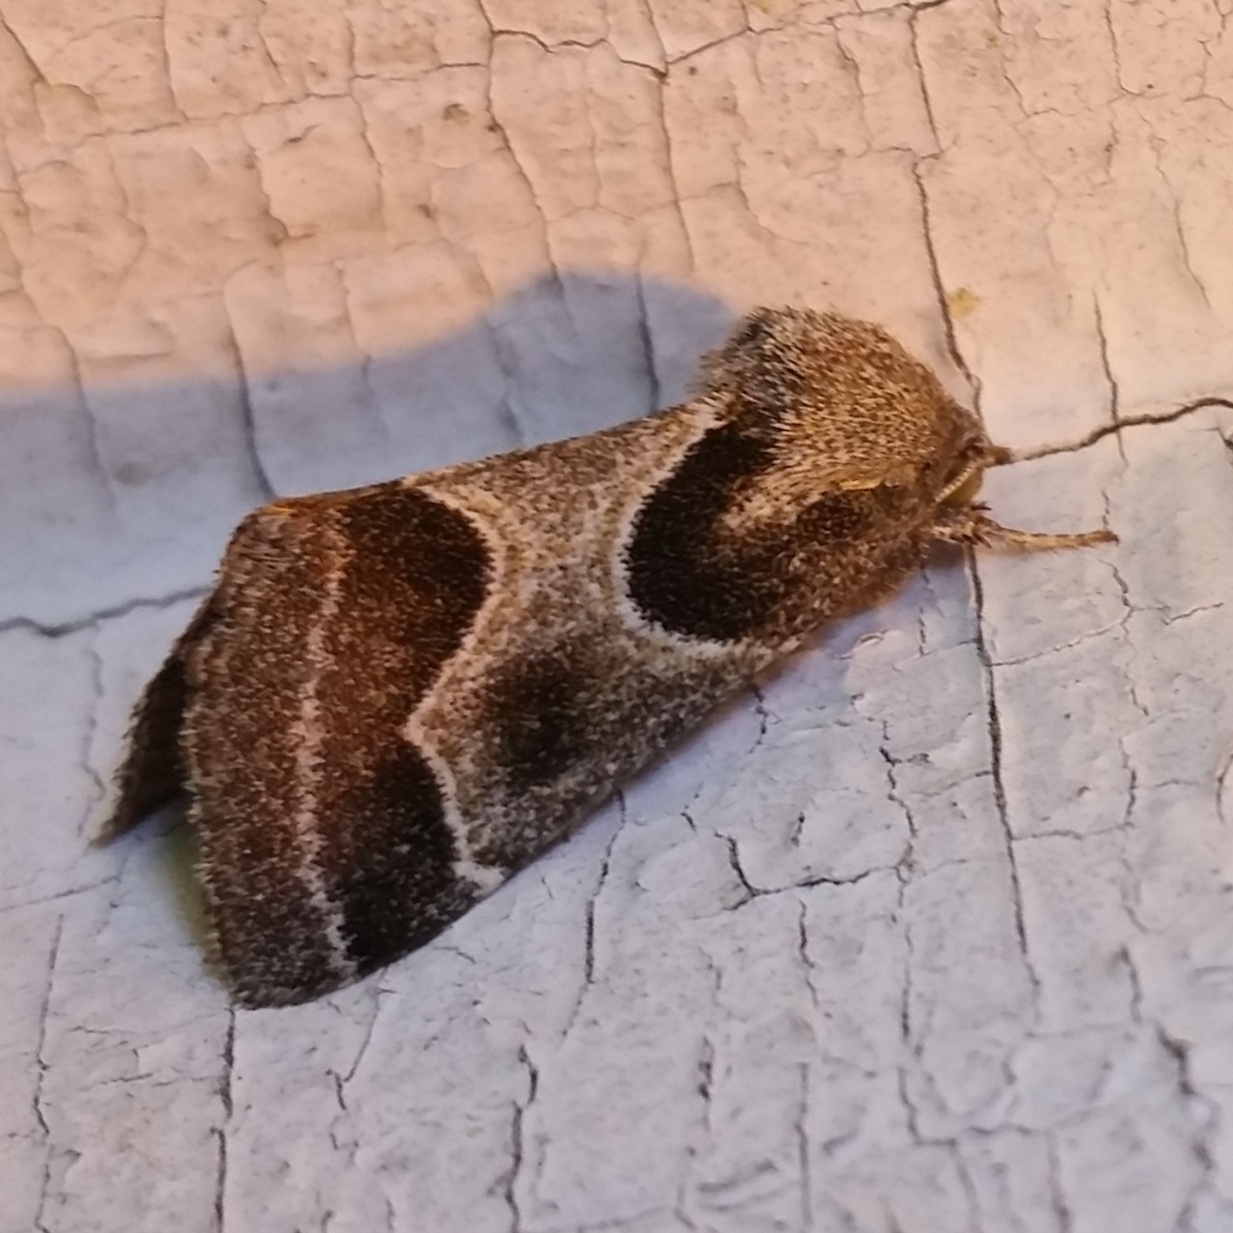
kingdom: Animalia
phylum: Arthropoda
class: Insecta
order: Lepidoptera
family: Noctuidae
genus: Schinia
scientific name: Schinia rivulosa
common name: Scarce meal-moth
